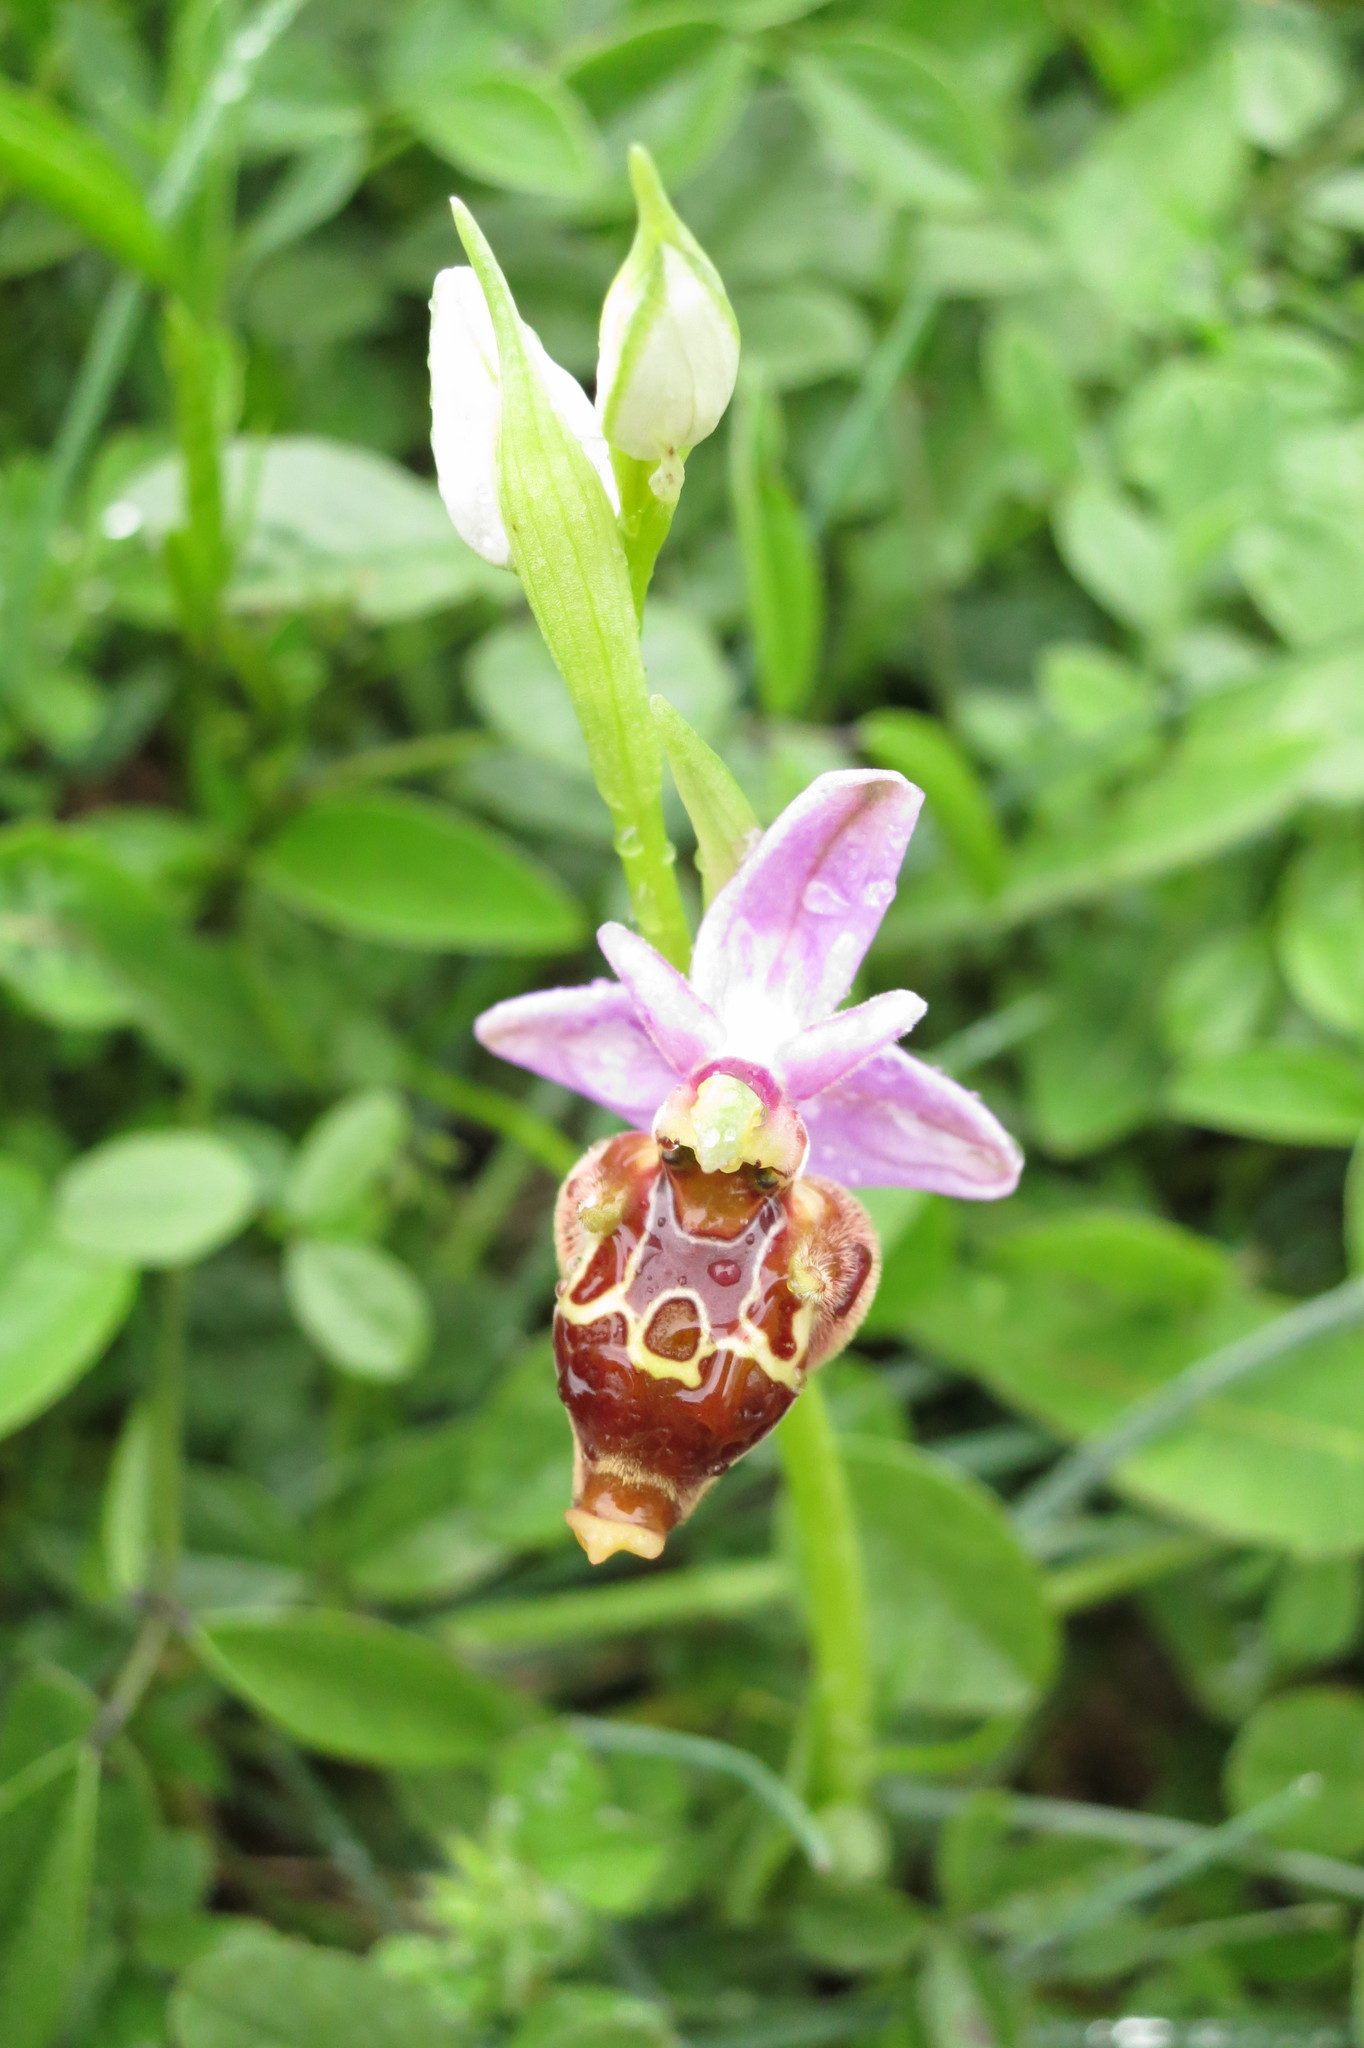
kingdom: Plantae
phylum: Tracheophyta
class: Liliopsida
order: Asparagales
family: Orchidaceae
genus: Ophrys
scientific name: Ophrys
